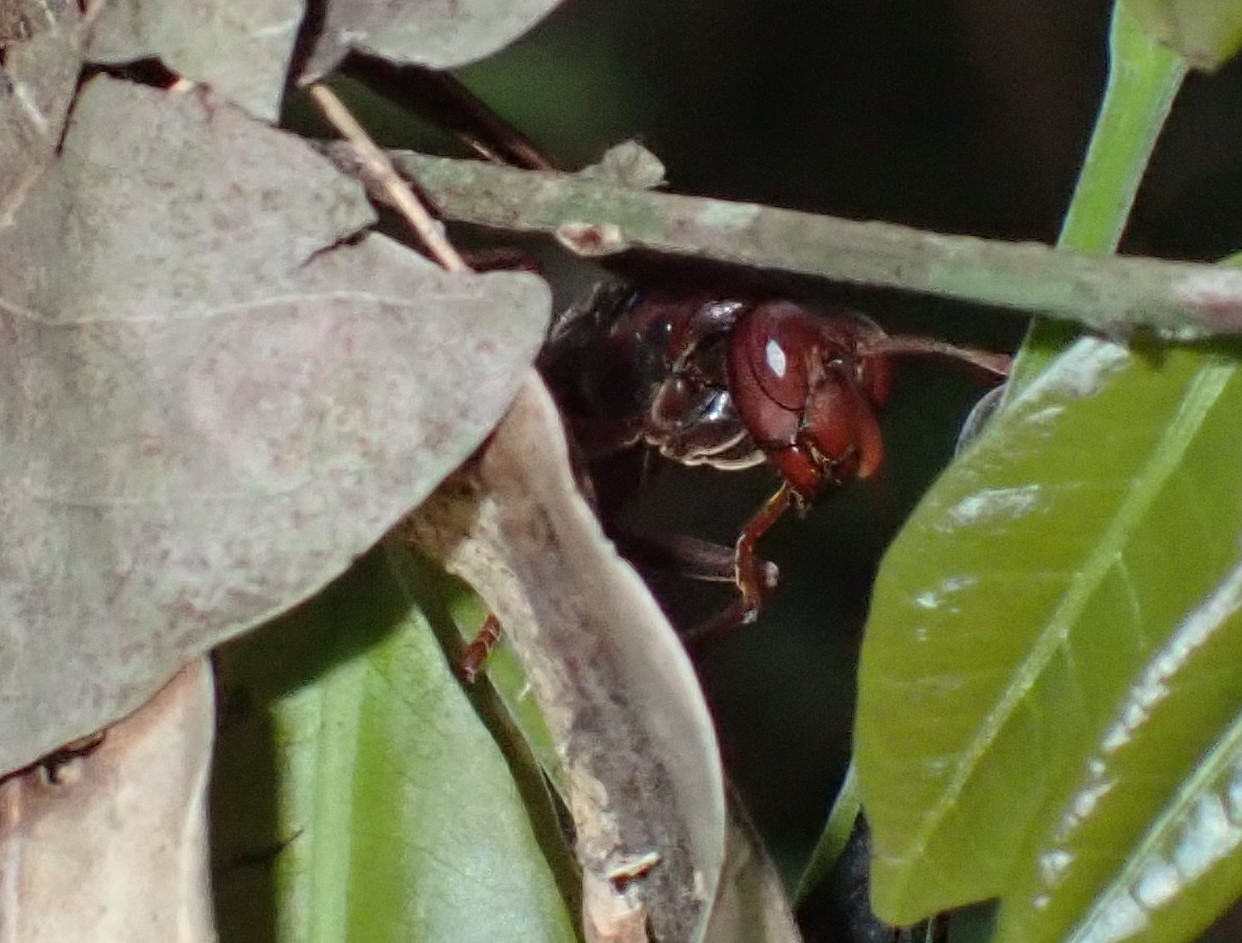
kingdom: Animalia
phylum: Arthropoda
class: Insecta
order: Hymenoptera
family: Eumenidae
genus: Polistes
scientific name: Polistes franciscanus
